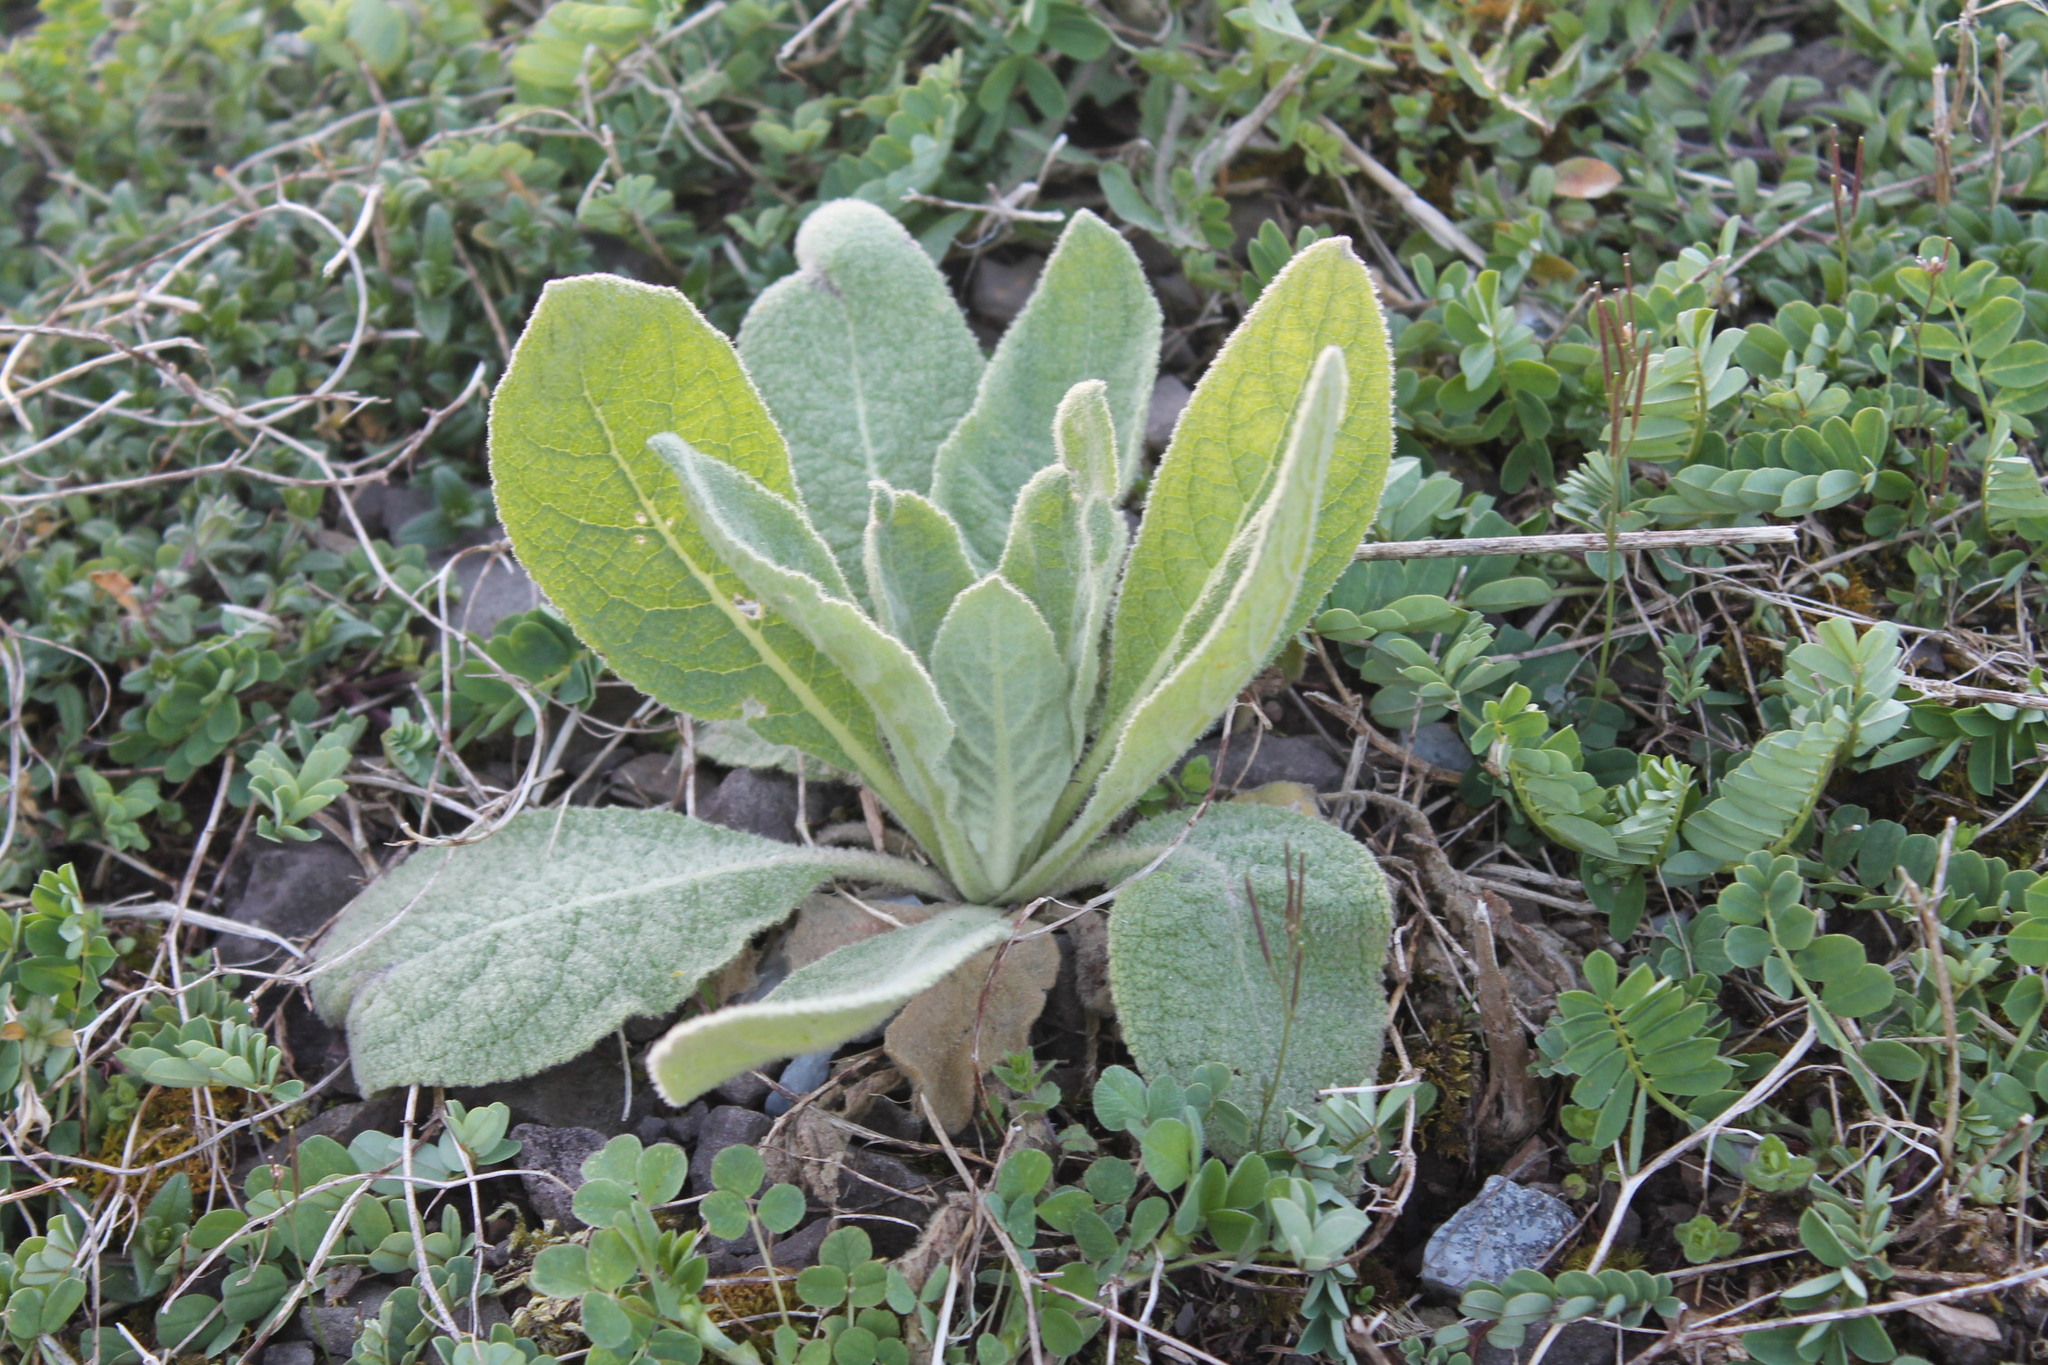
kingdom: Plantae
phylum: Tracheophyta
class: Magnoliopsida
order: Lamiales
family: Scrophulariaceae
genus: Verbascum
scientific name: Verbascum thapsus
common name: Common mullein
